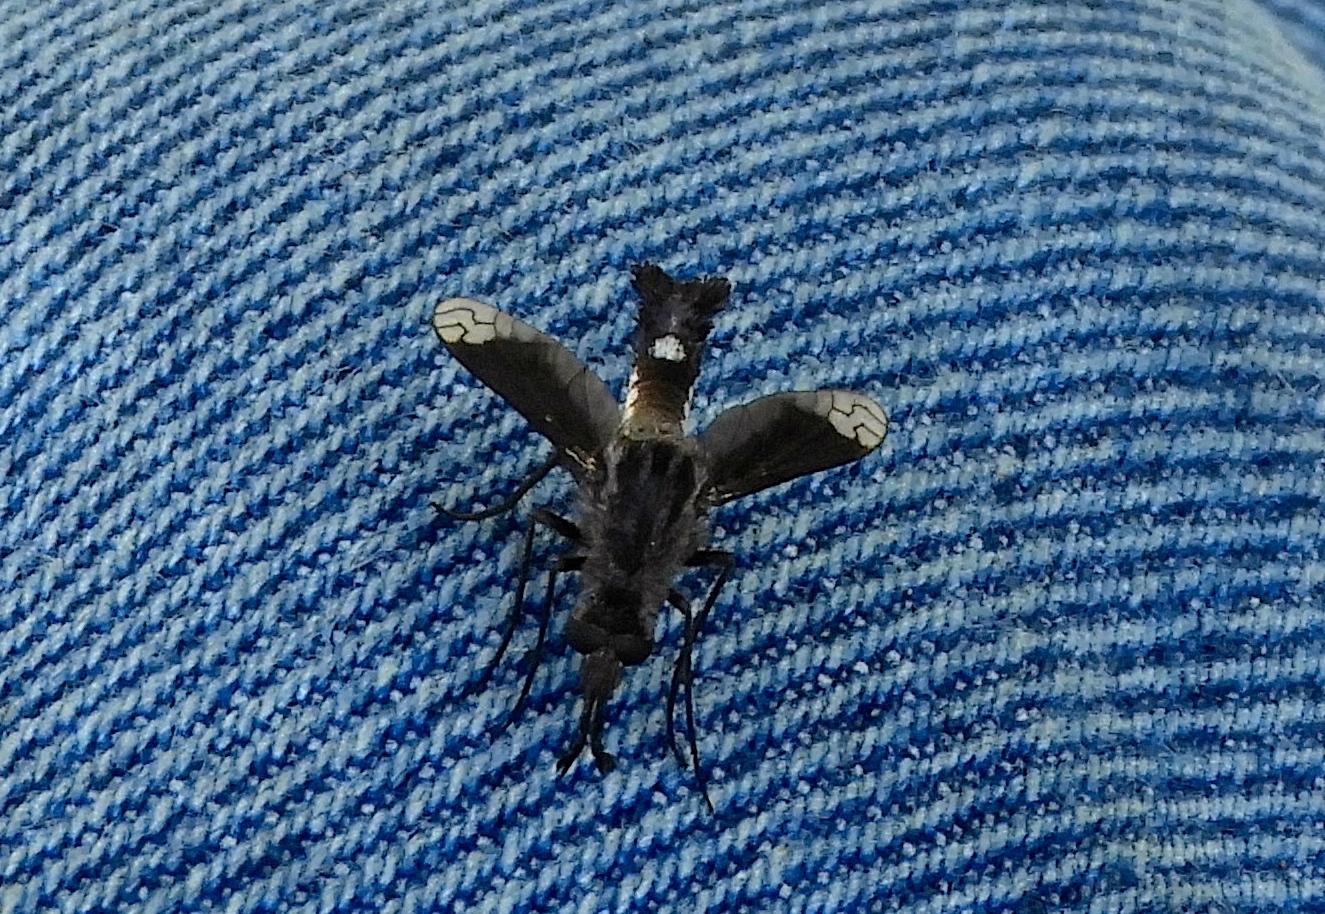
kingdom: Animalia
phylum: Arthropoda
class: Insecta
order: Diptera
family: Bombyliidae
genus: Lepidophora
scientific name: Lepidophora vetusta
